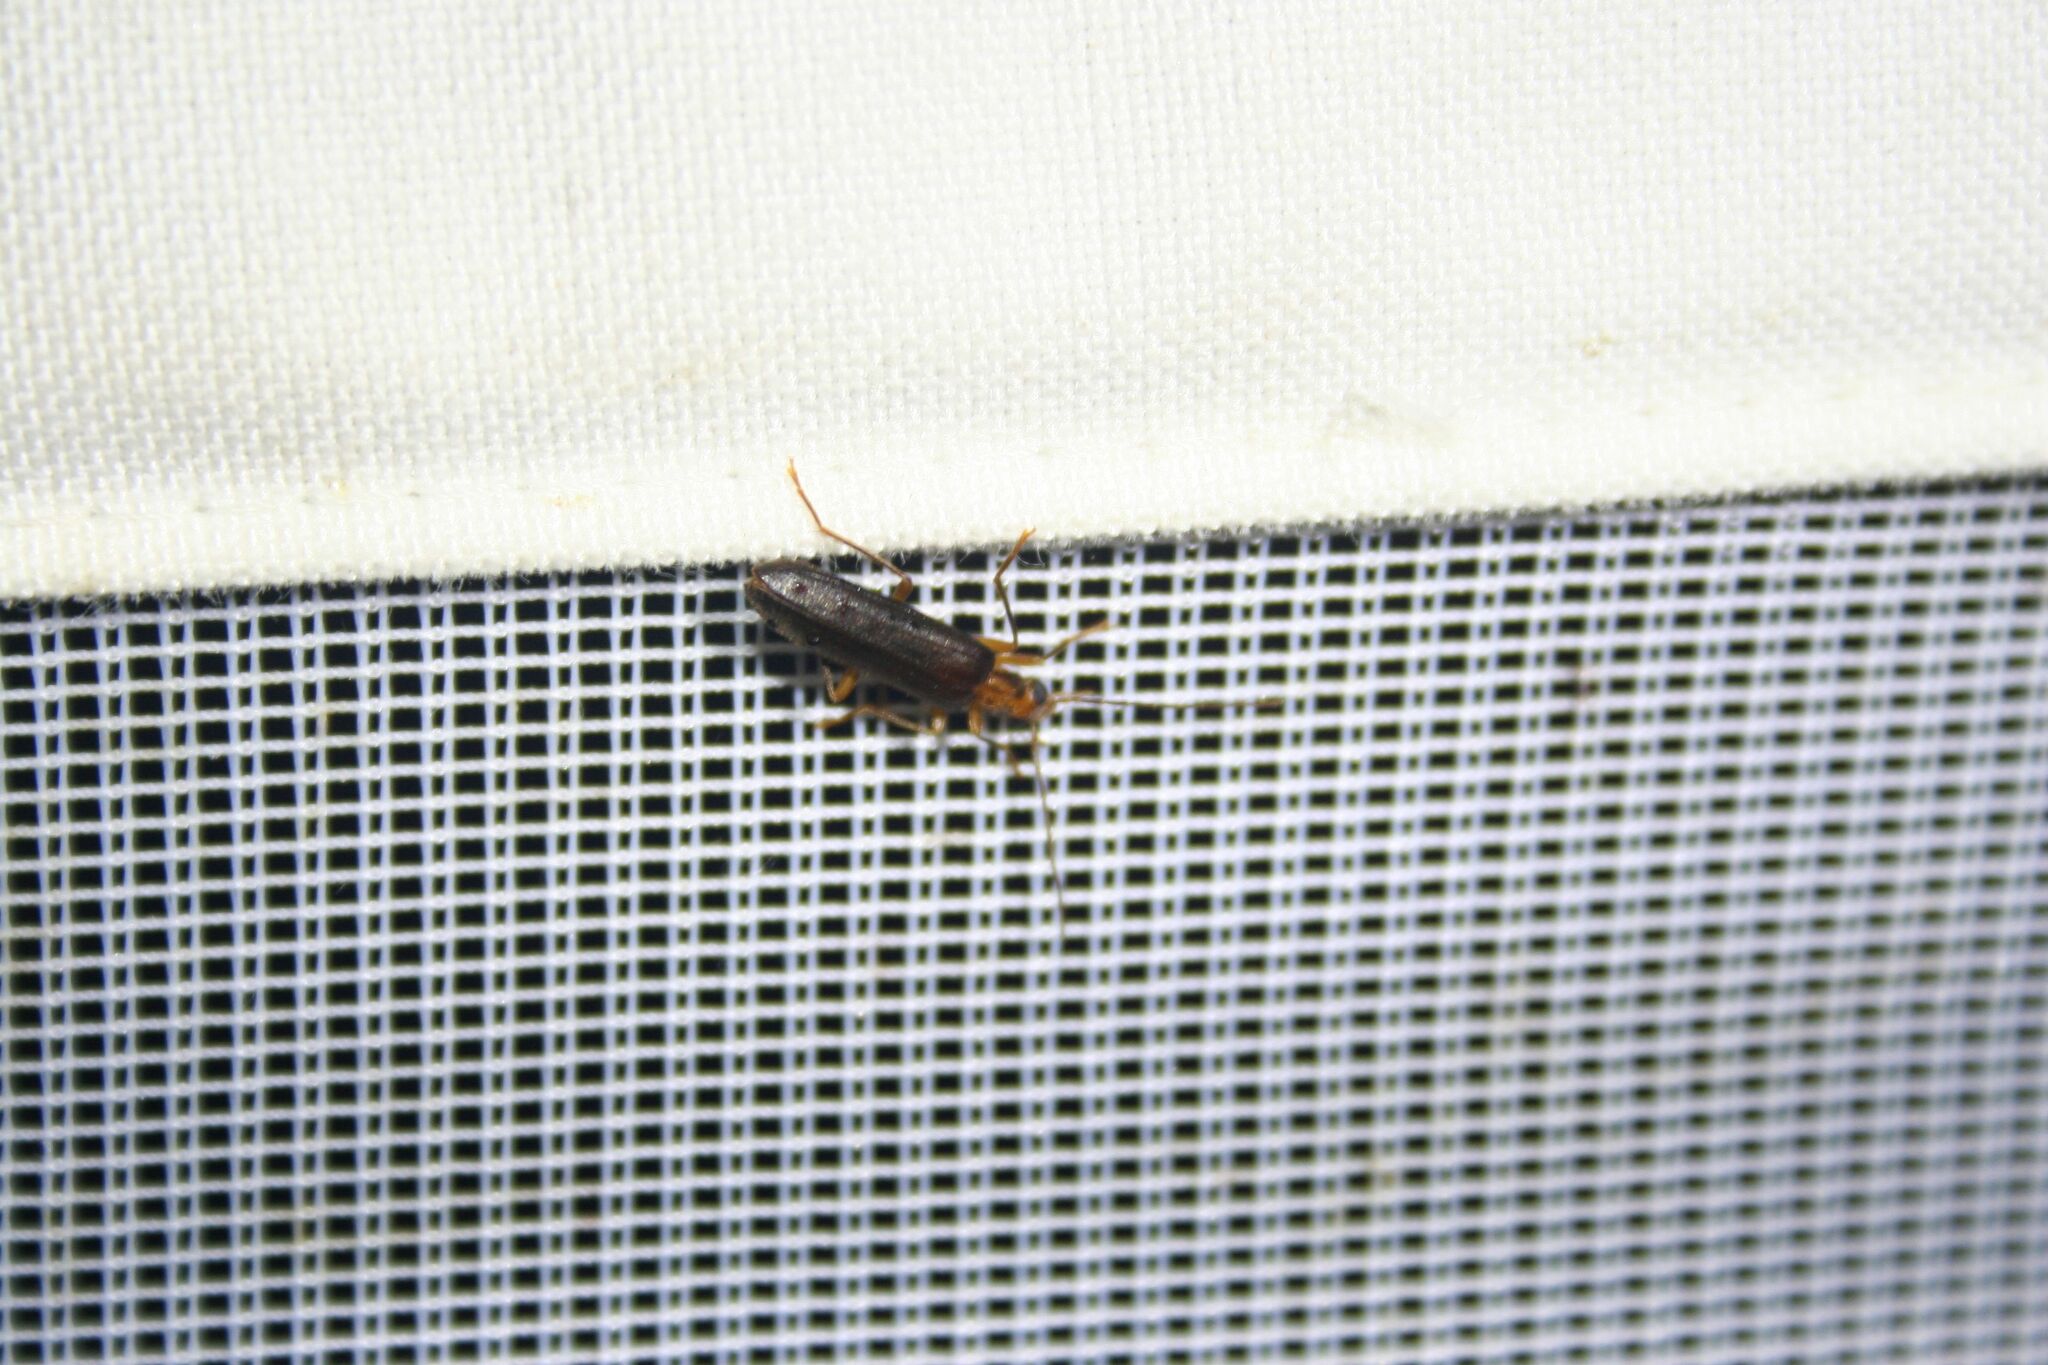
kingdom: Animalia
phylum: Arthropoda
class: Insecta
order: Coleoptera
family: Oedemeridae
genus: Nacerdes
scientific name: Nacerdes carniolica
